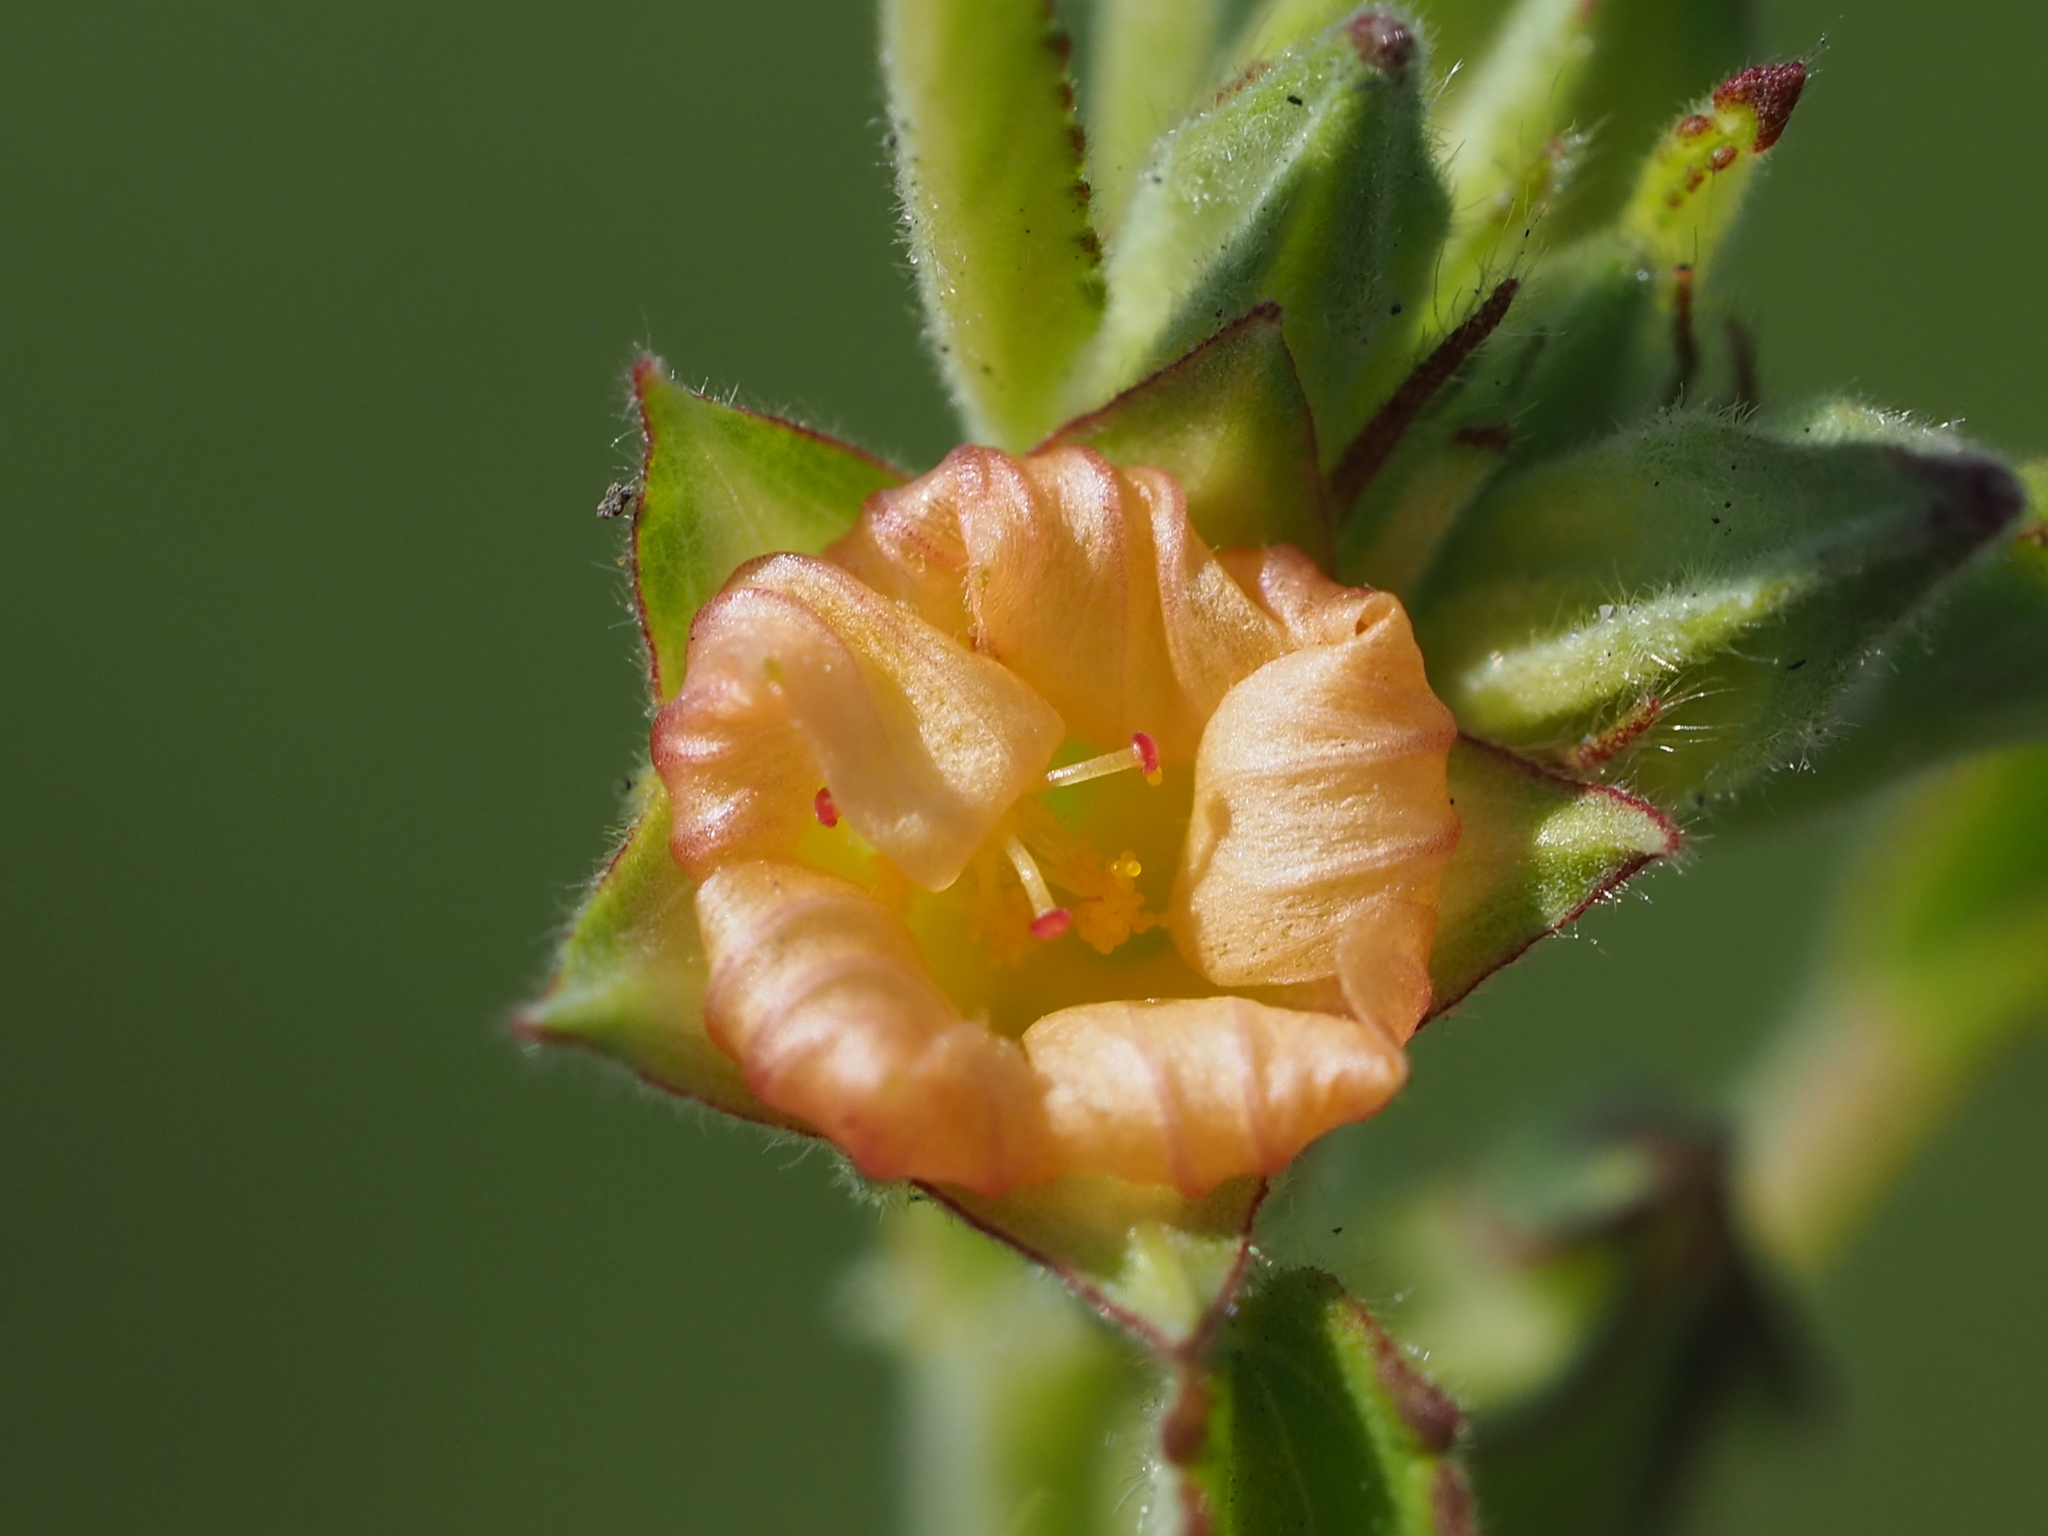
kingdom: Plantae
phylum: Tracheophyta
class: Magnoliopsida
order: Malvales
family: Malvaceae
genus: Sida
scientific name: Sida spinosa
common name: Prickly fanpetals
